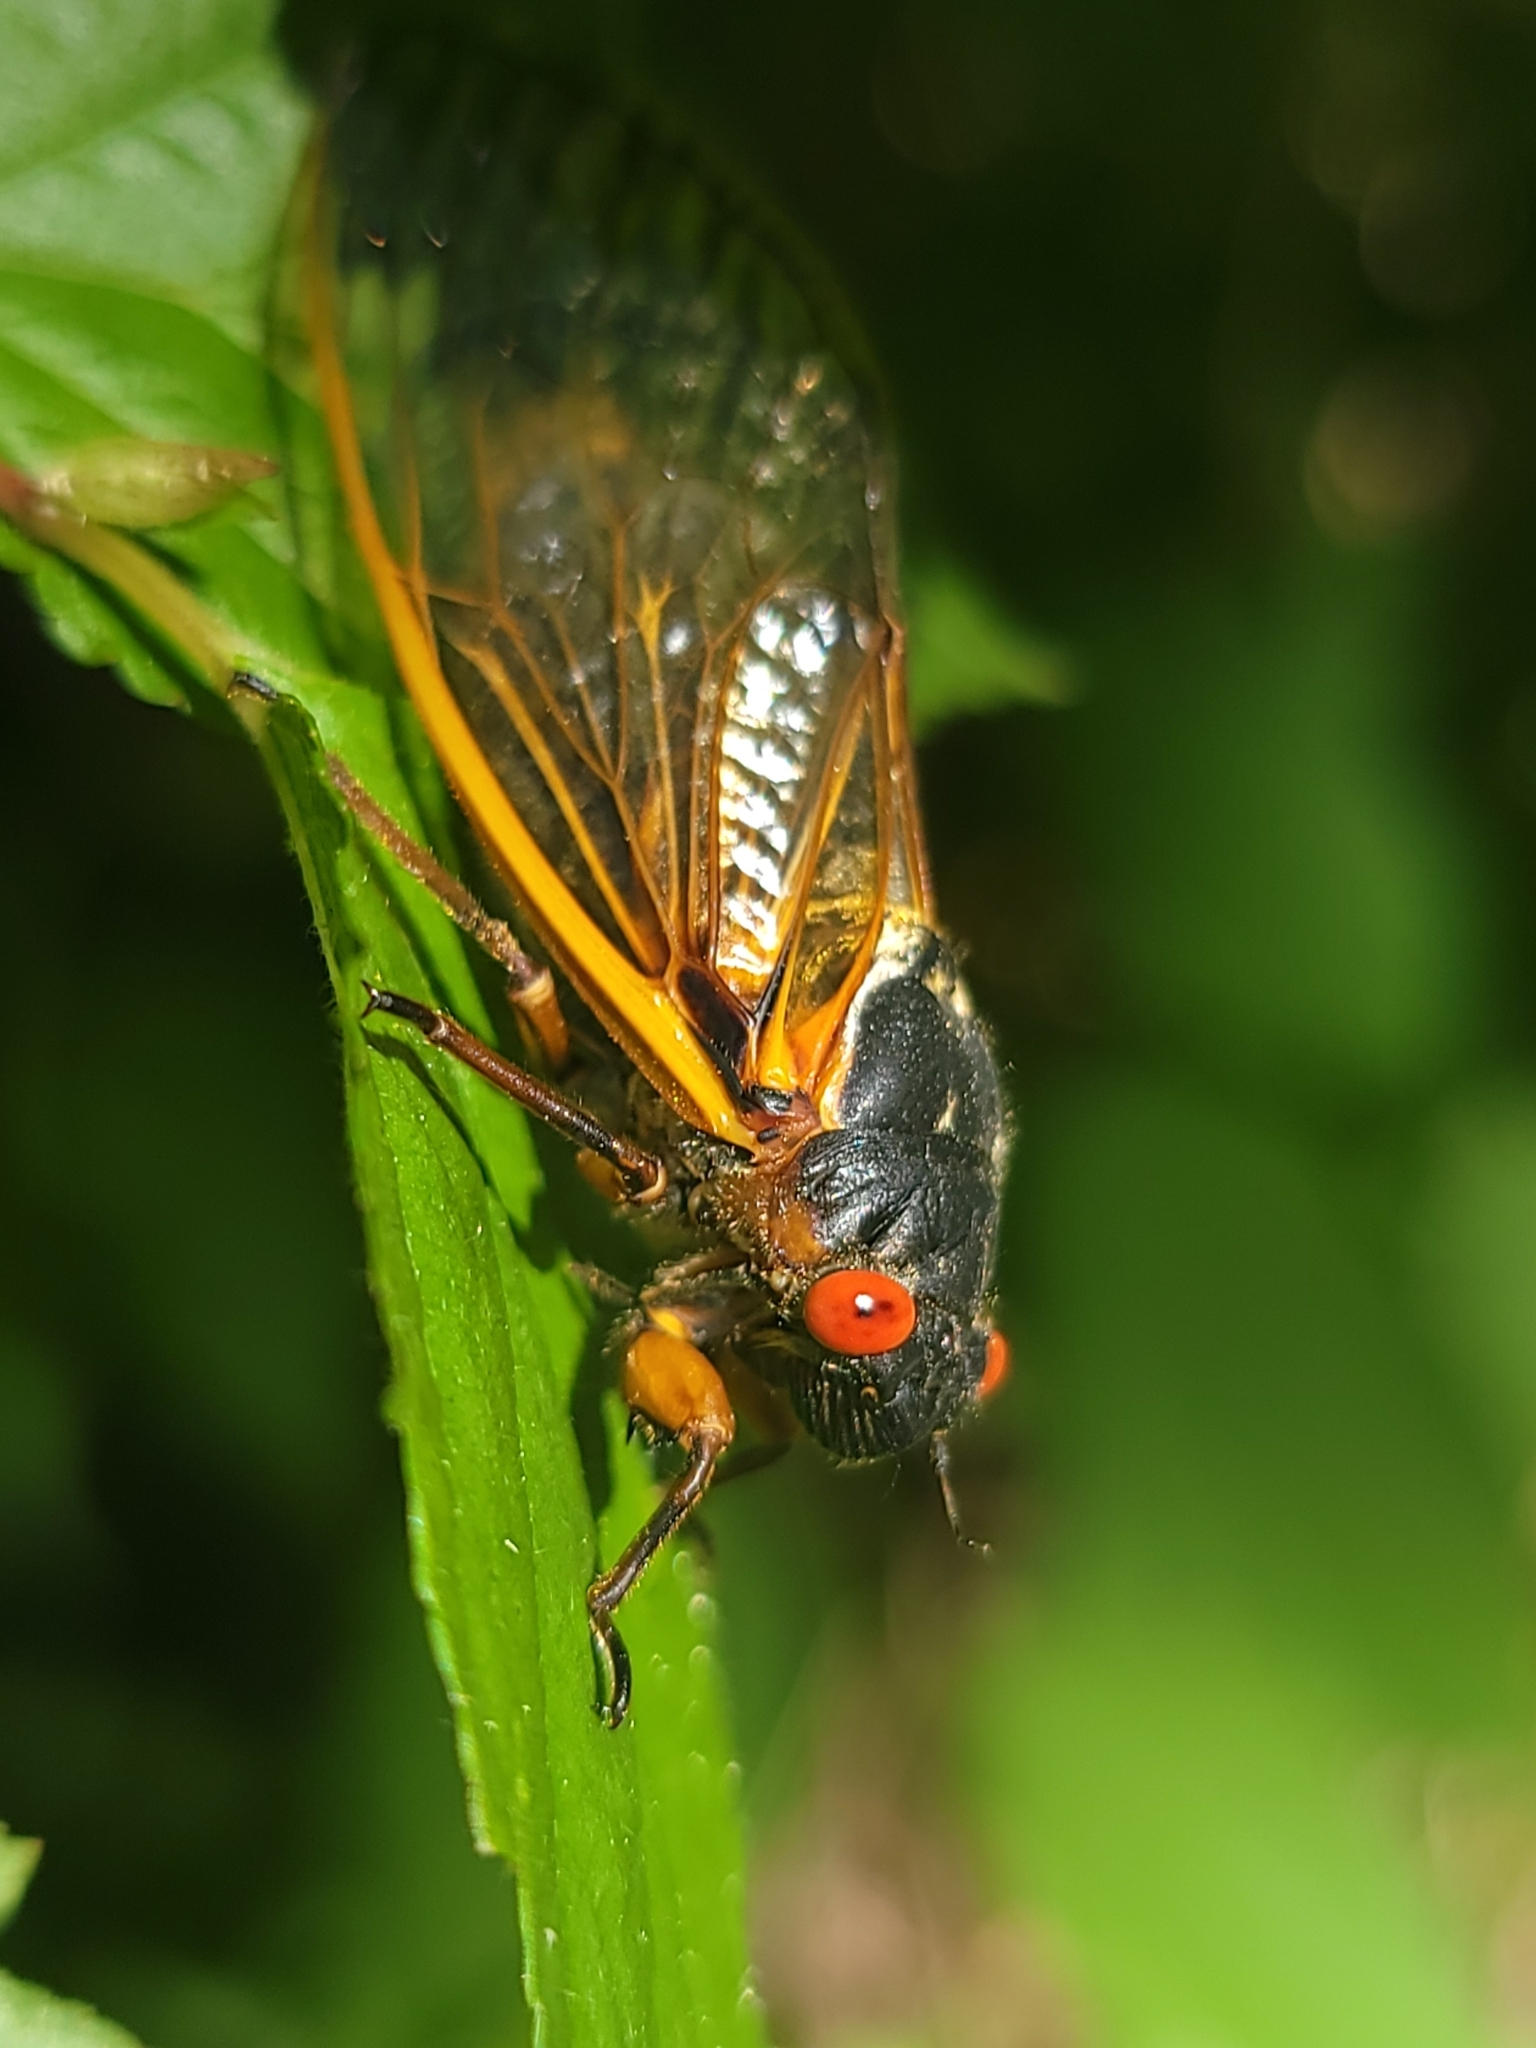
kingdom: Animalia
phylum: Arthropoda
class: Insecta
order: Hemiptera
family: Cicadidae
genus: Magicicada
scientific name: Magicicada septendecim
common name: Periodical cicada
